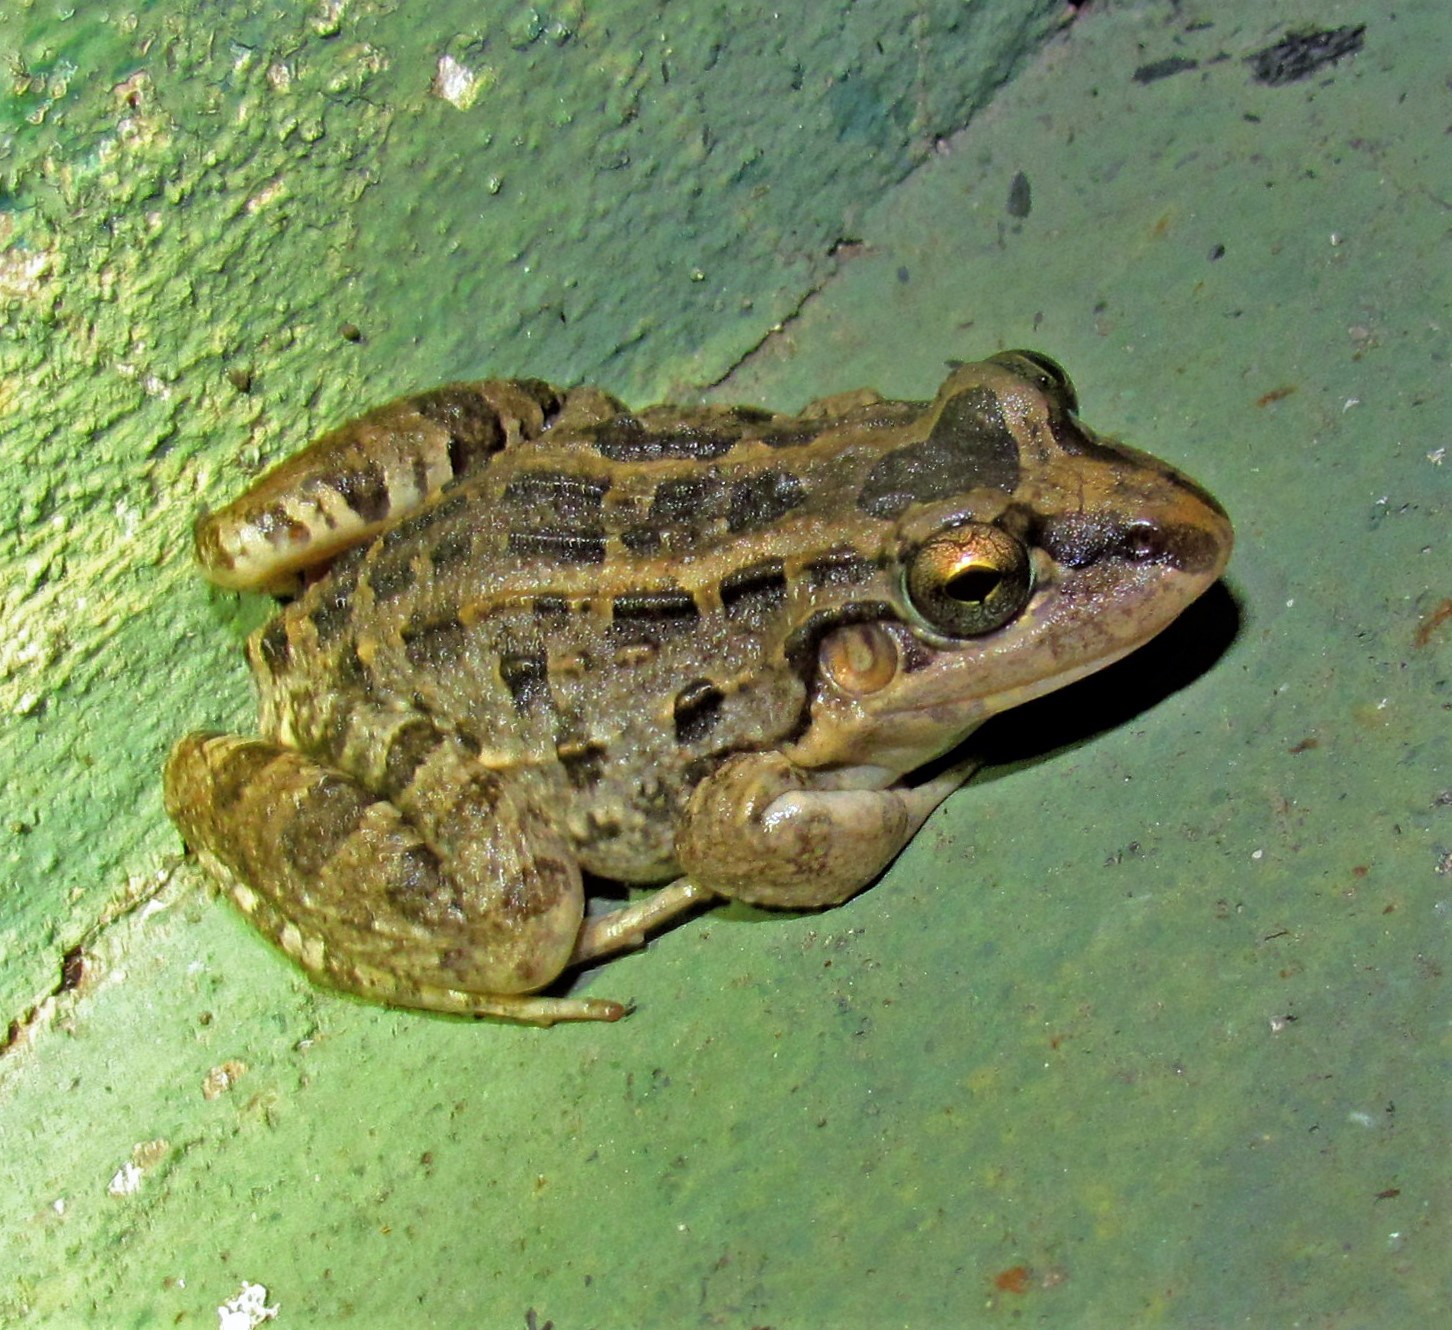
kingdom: Animalia
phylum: Chordata
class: Amphibia
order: Anura
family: Leptodactylidae
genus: Leptodactylus
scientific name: Leptodactylus macrosternum
